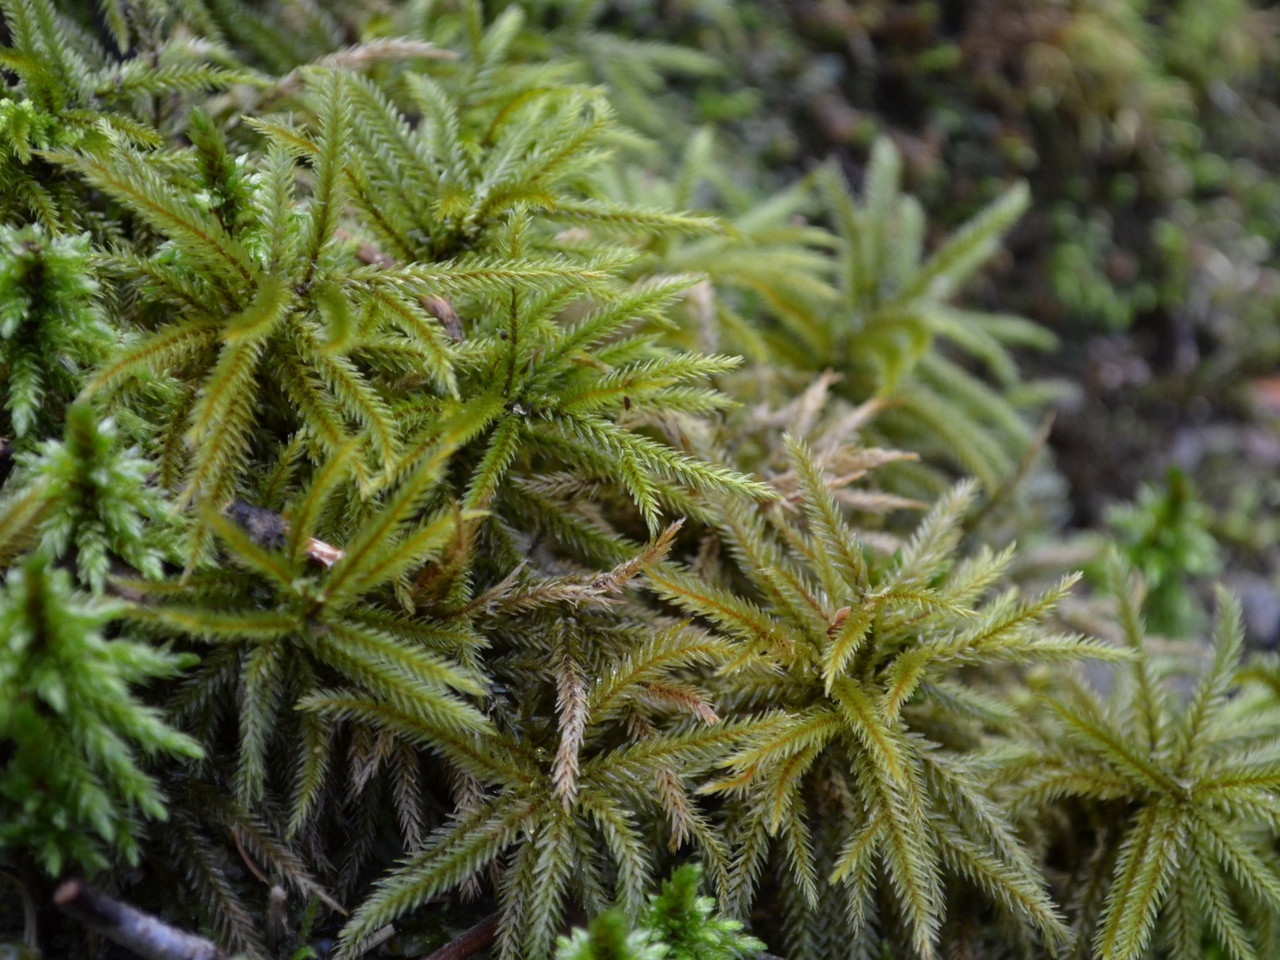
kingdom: Plantae
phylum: Bryophyta
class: Bryopsida
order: Hypnales
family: Climaciaceae
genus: Climacium
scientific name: Climacium americanum
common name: American tree moss
